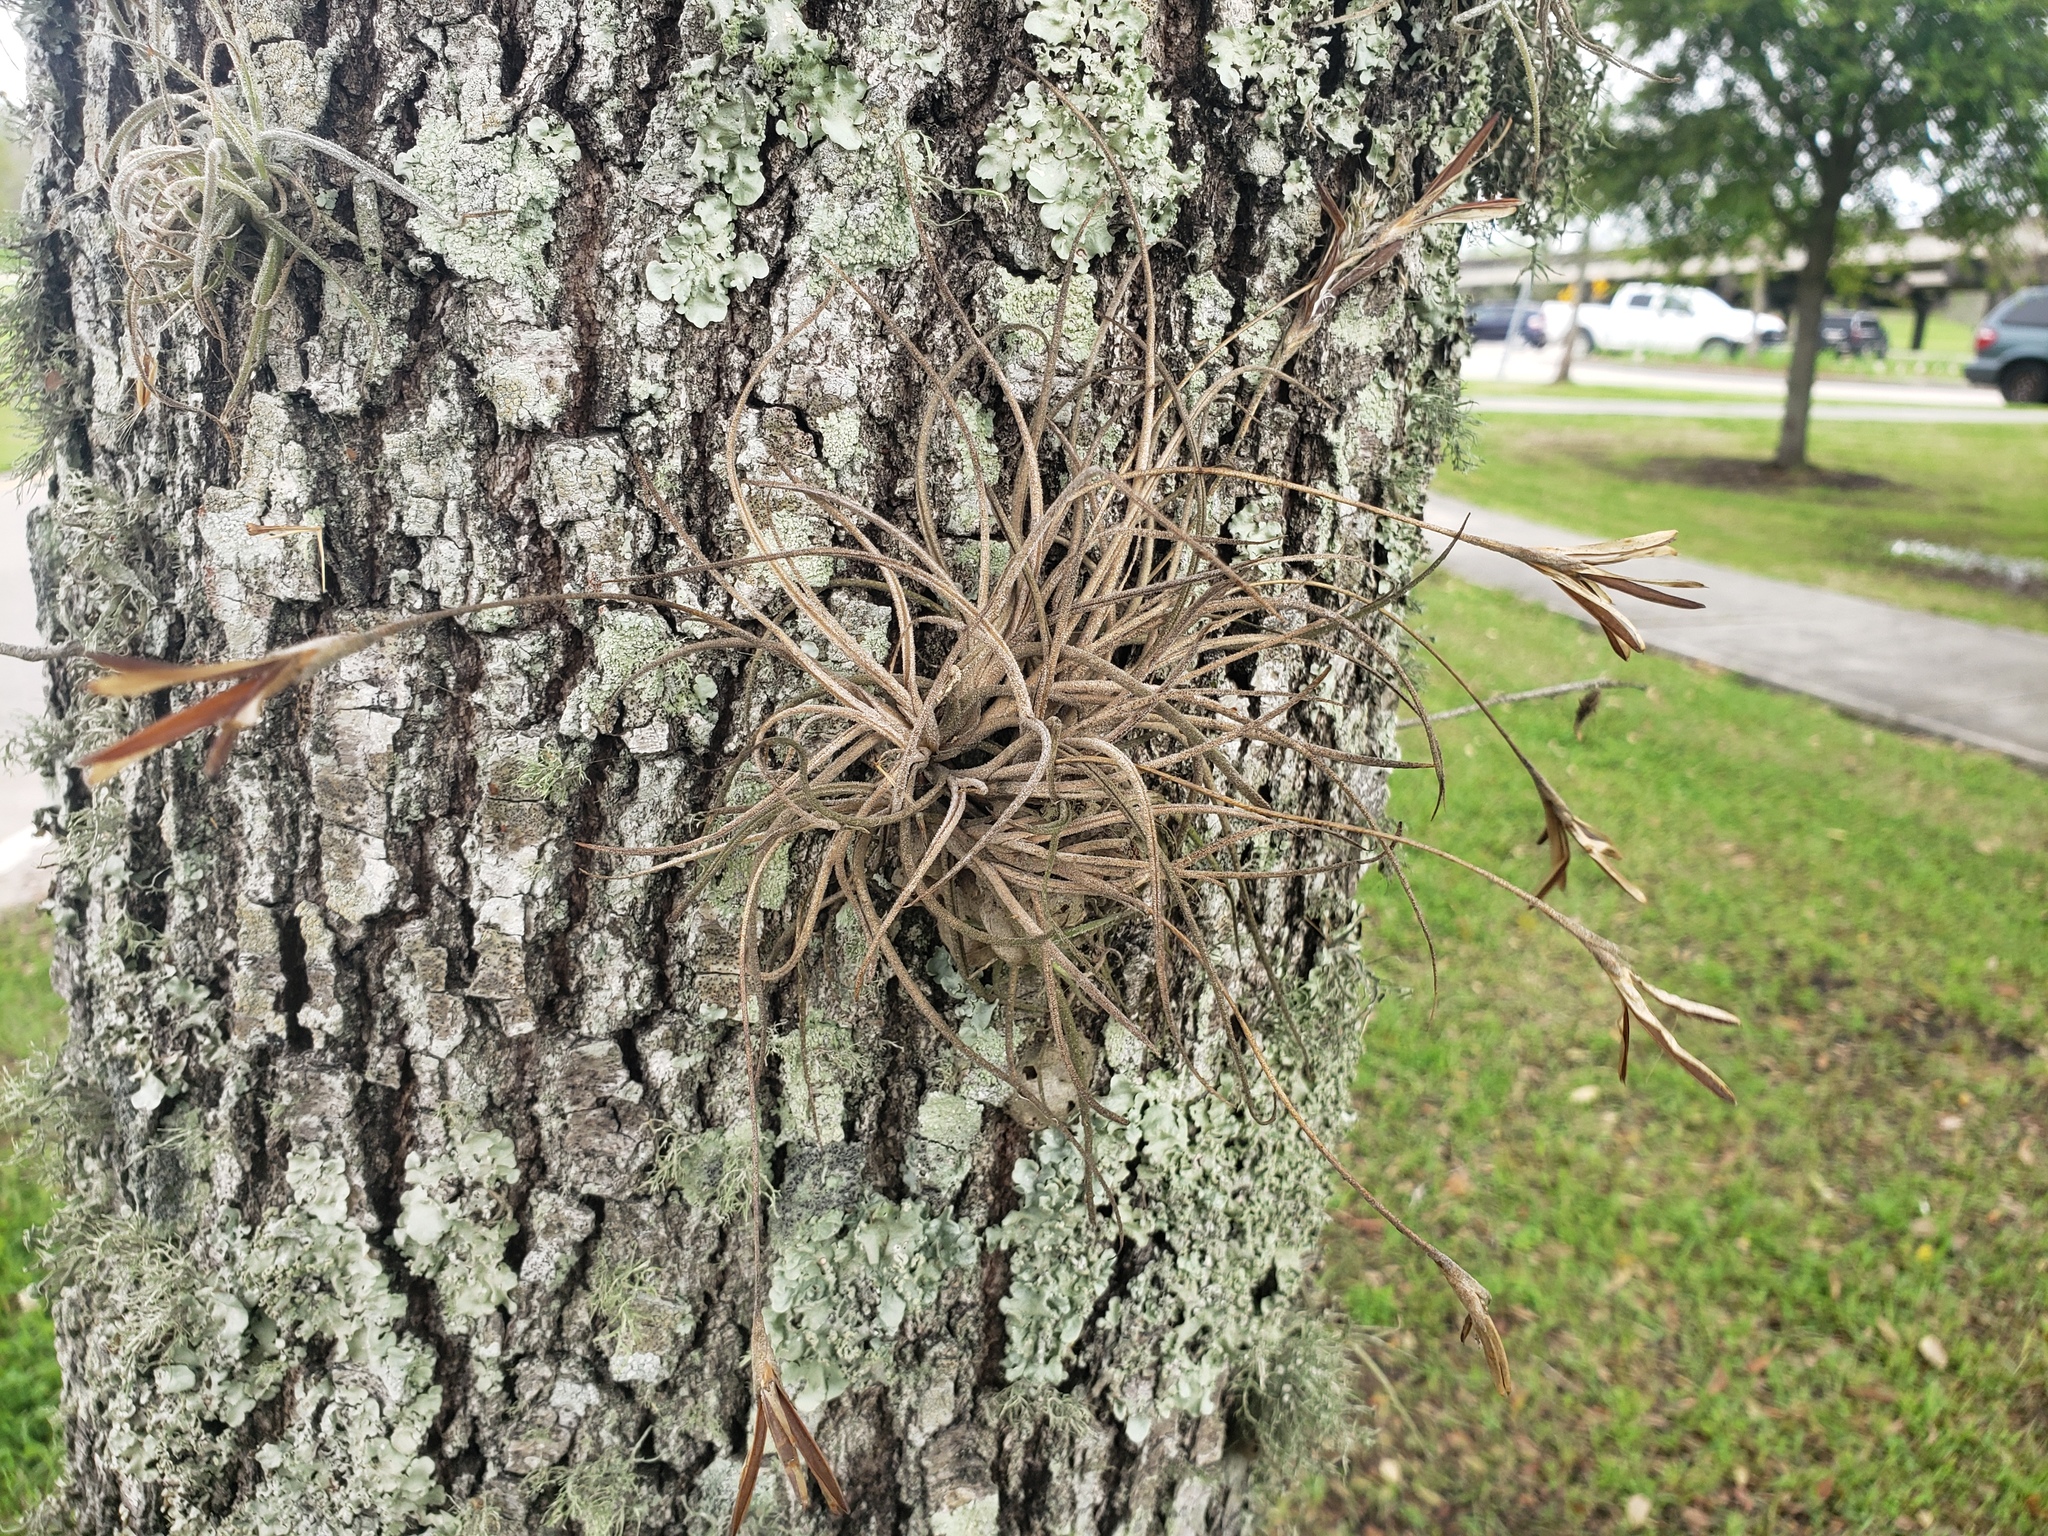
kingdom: Plantae
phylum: Tracheophyta
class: Liliopsida
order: Poales
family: Bromeliaceae
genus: Tillandsia
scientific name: Tillandsia recurvata
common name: Small ballmoss
